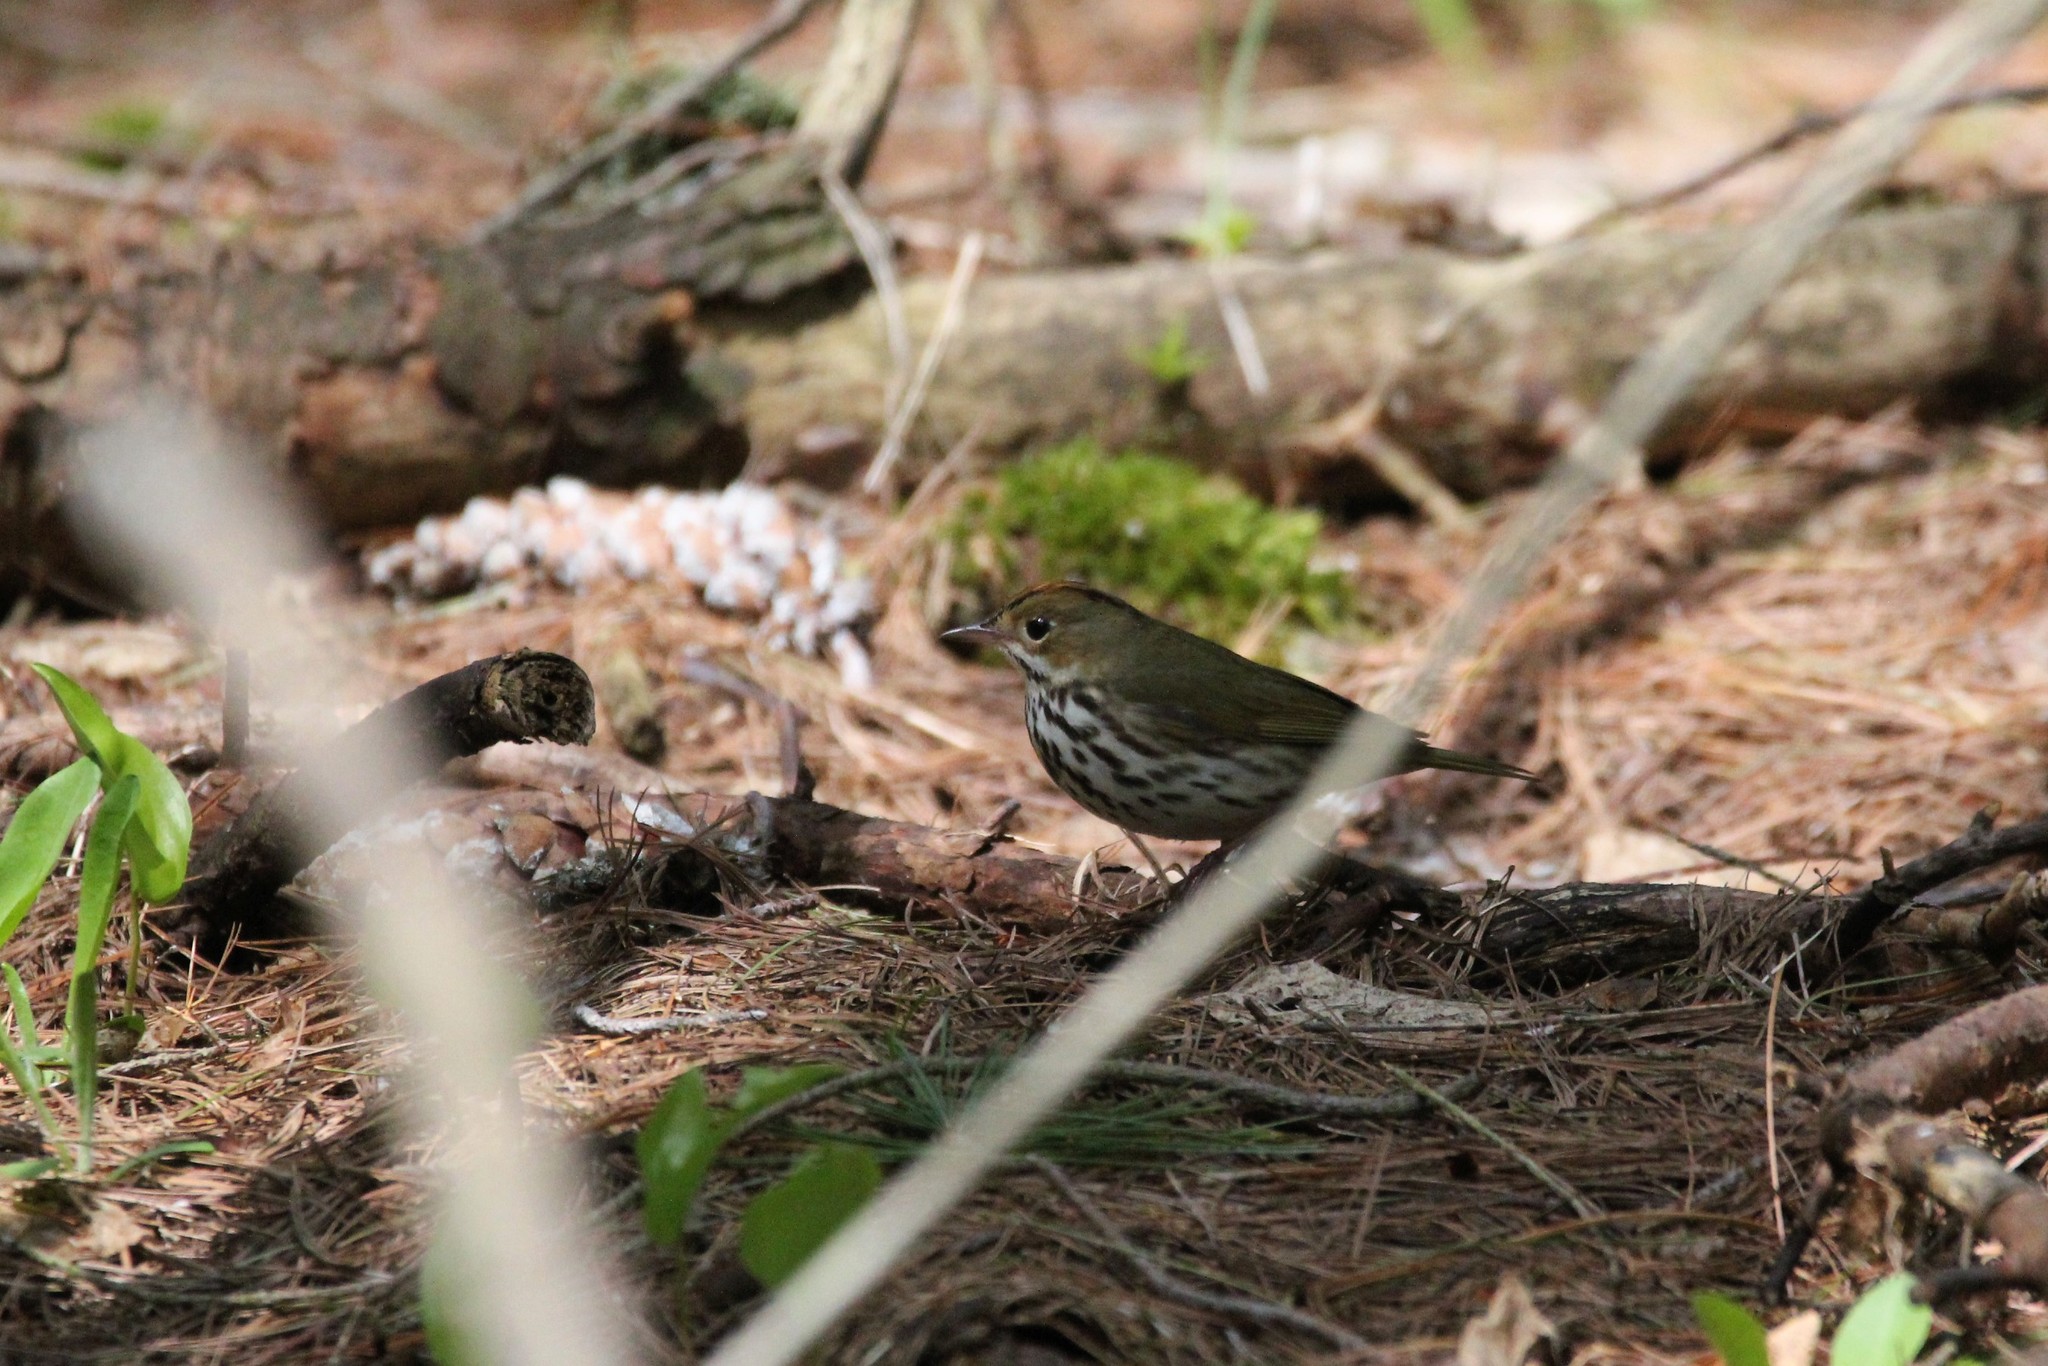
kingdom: Animalia
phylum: Chordata
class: Aves
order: Passeriformes
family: Parulidae
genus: Seiurus
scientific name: Seiurus aurocapilla
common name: Ovenbird
